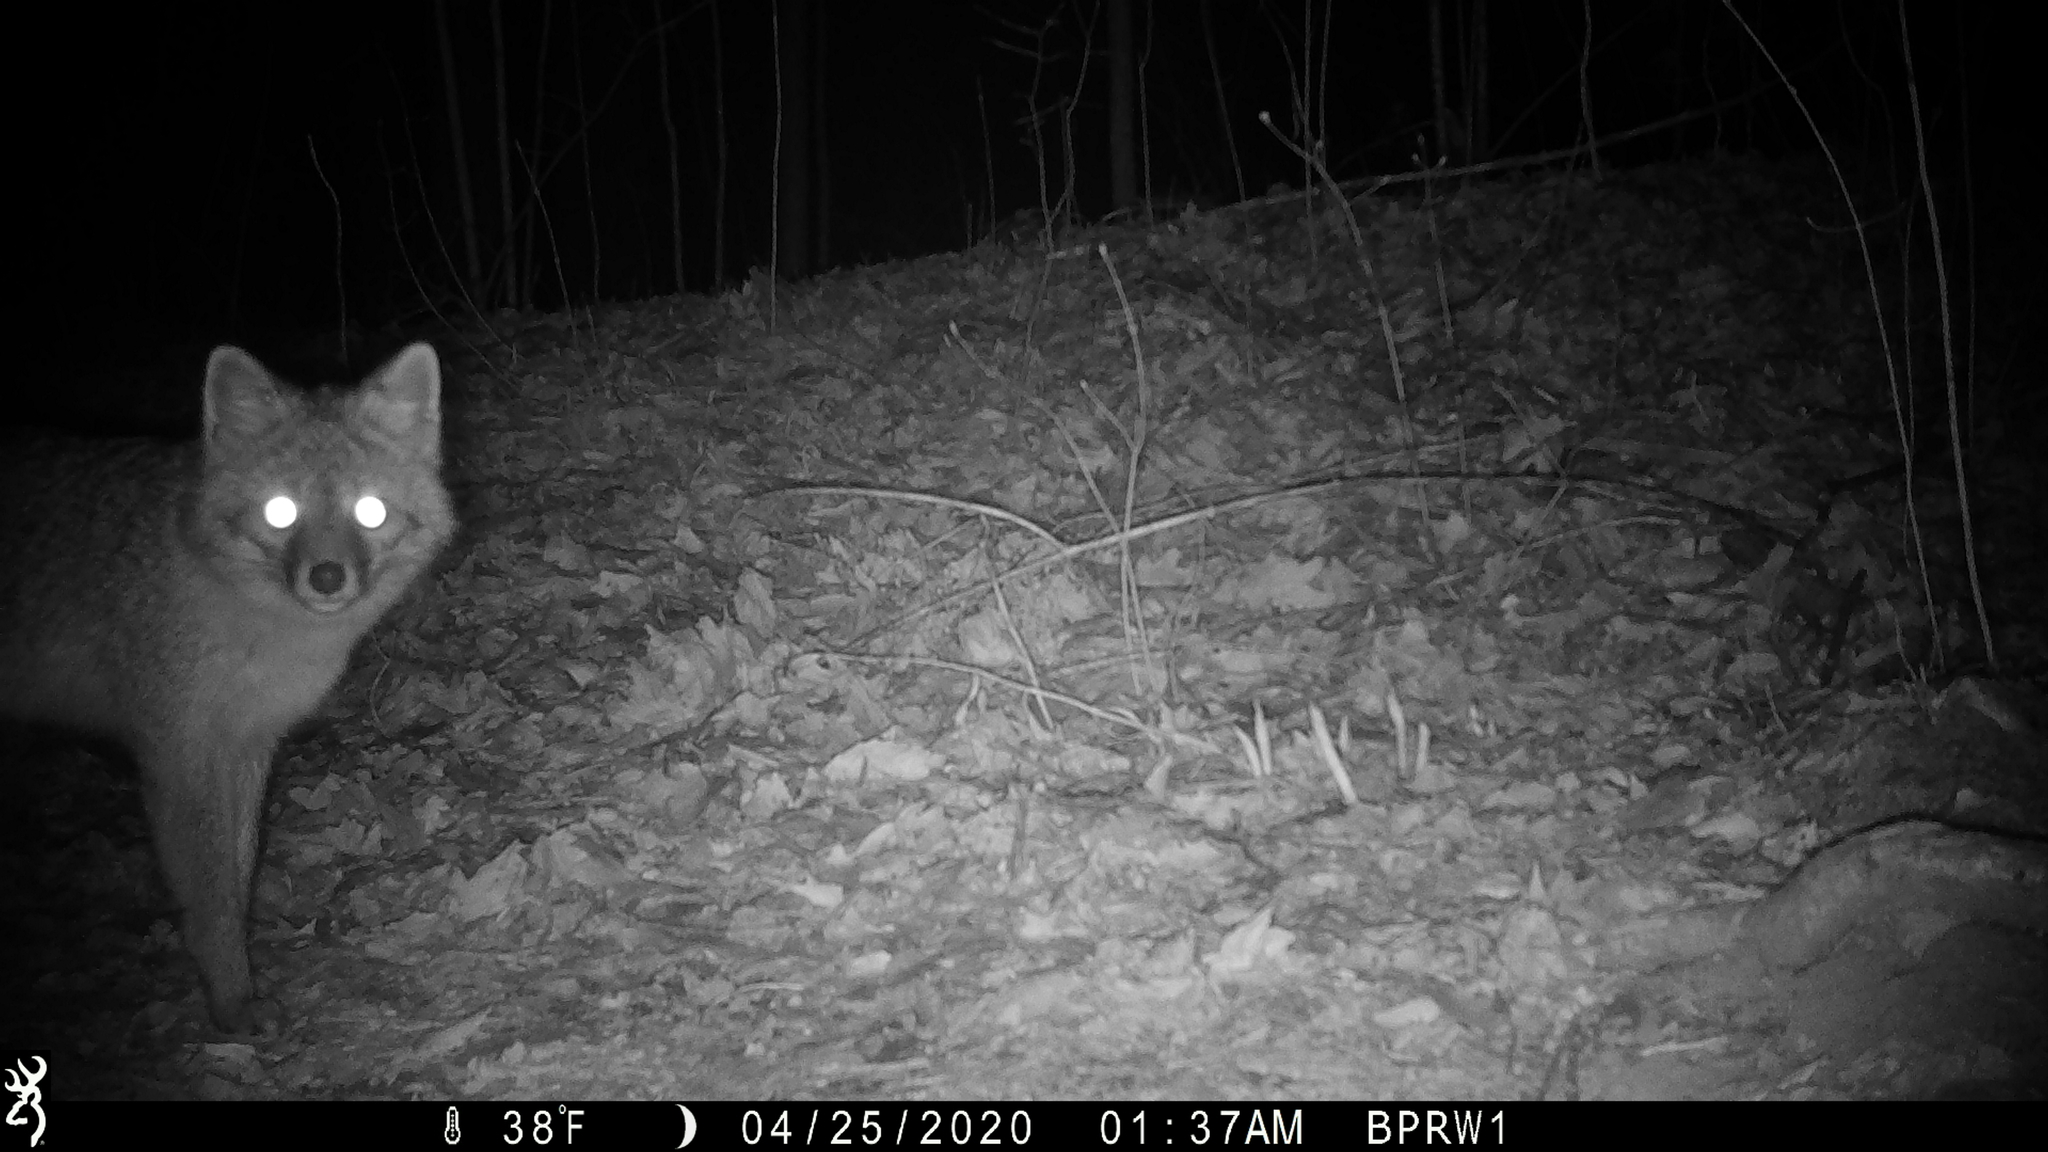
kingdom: Animalia
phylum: Chordata
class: Mammalia
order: Carnivora
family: Canidae
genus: Urocyon
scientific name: Urocyon cinereoargenteus
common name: Gray fox
